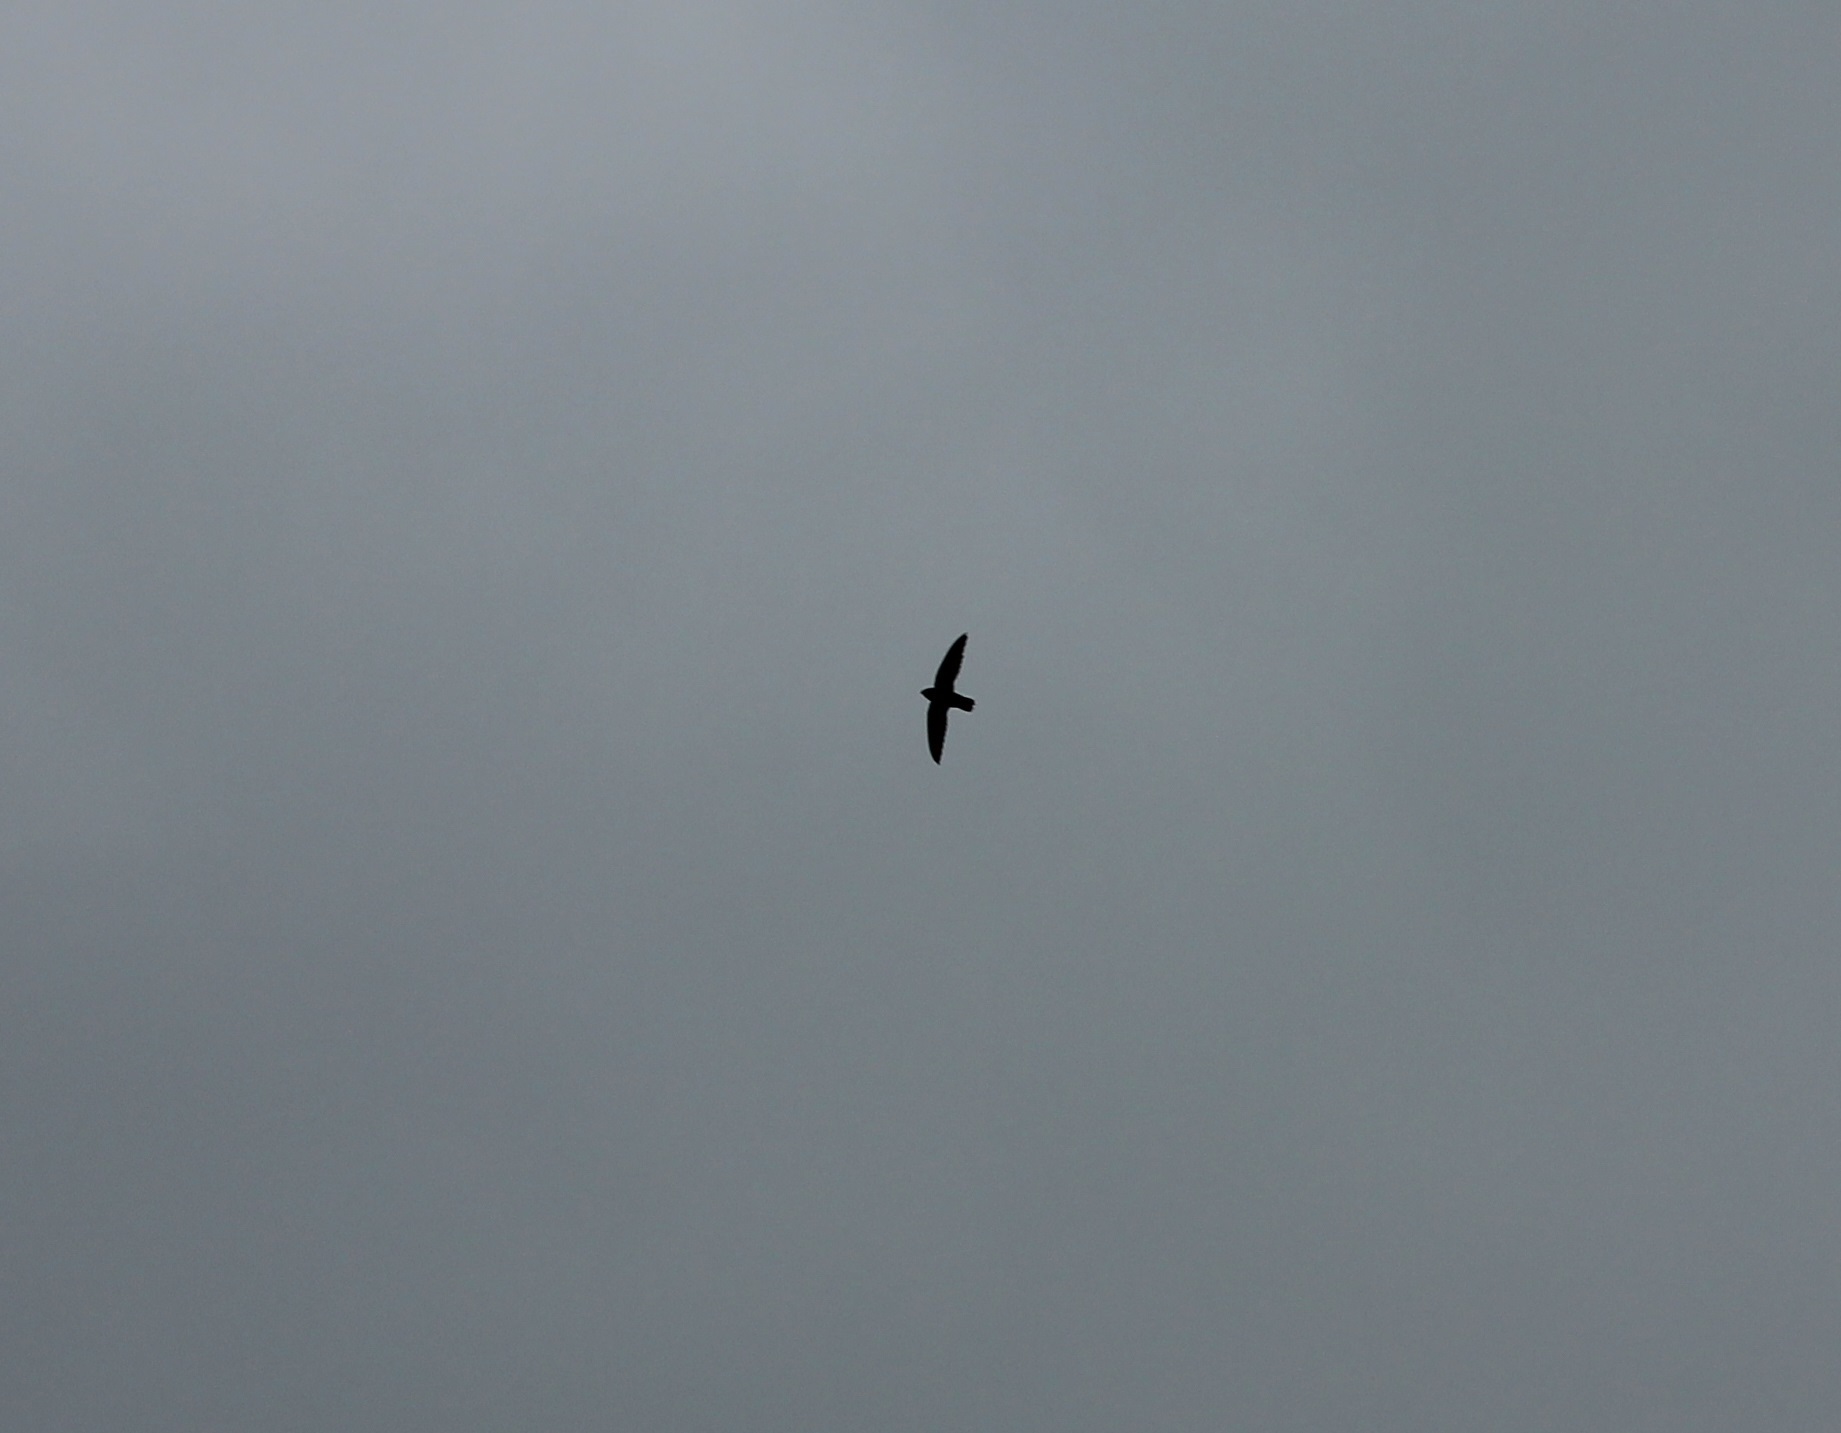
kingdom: Animalia
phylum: Chordata
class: Aves
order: Apodiformes
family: Apodidae
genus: Chaetura
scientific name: Chaetura pelagica
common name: Chimney swift
